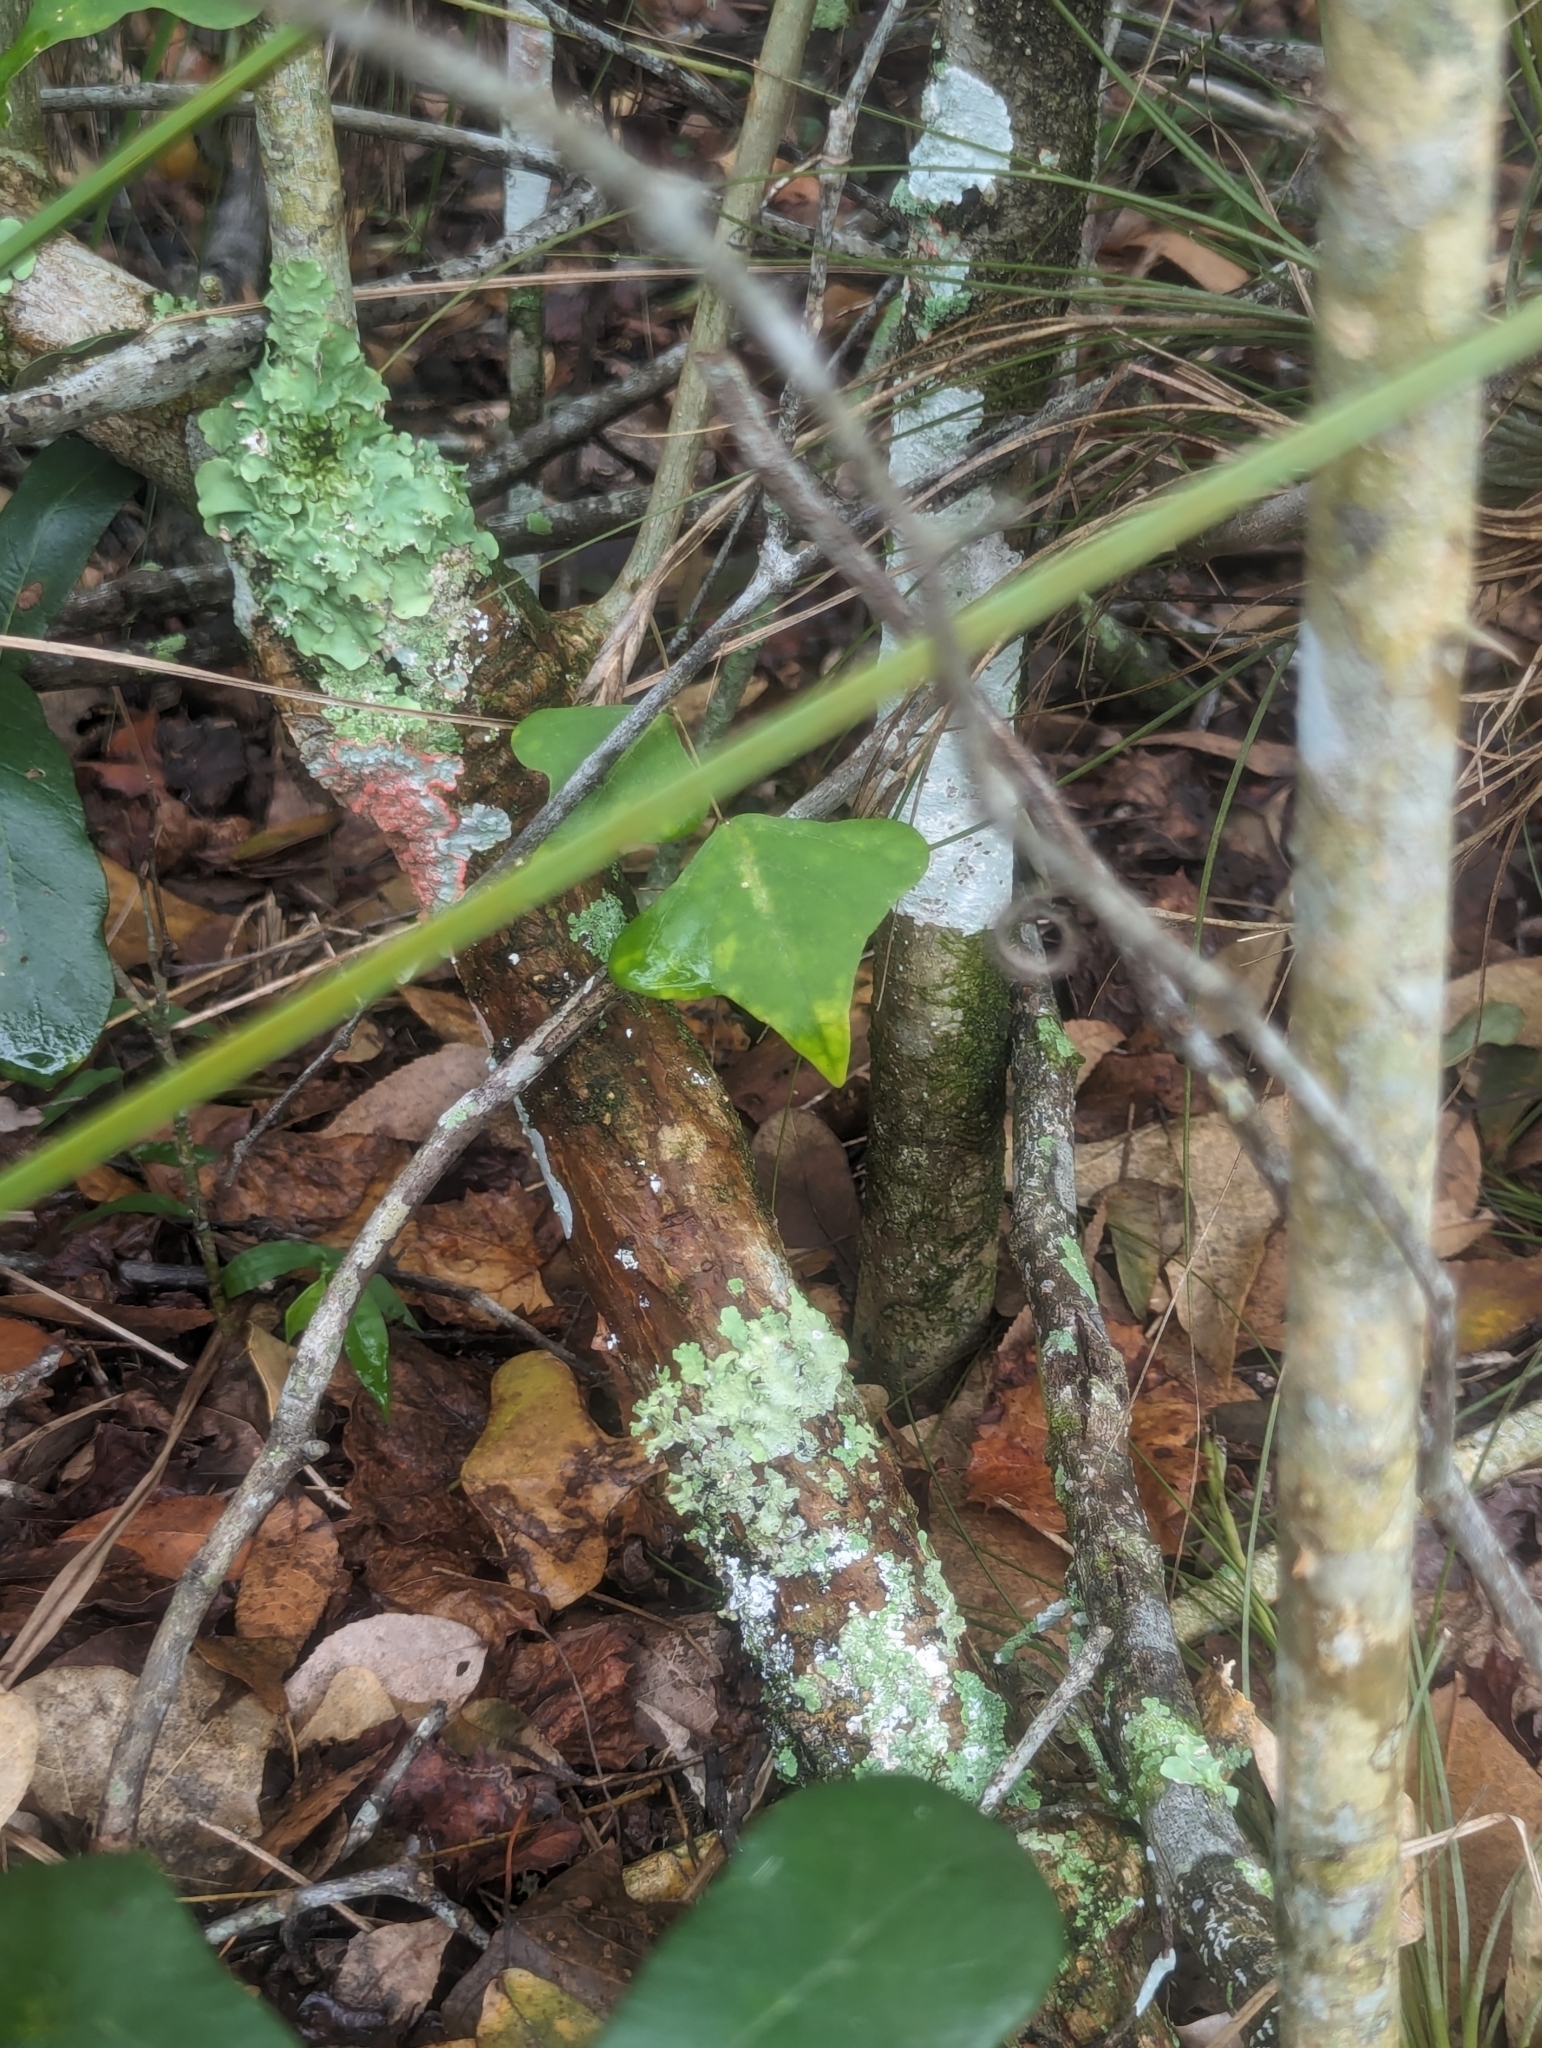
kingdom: Plantae
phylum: Tracheophyta
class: Magnoliopsida
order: Fabales
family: Fabaceae
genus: Erythrina
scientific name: Erythrina herbacea
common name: Coral-bean
